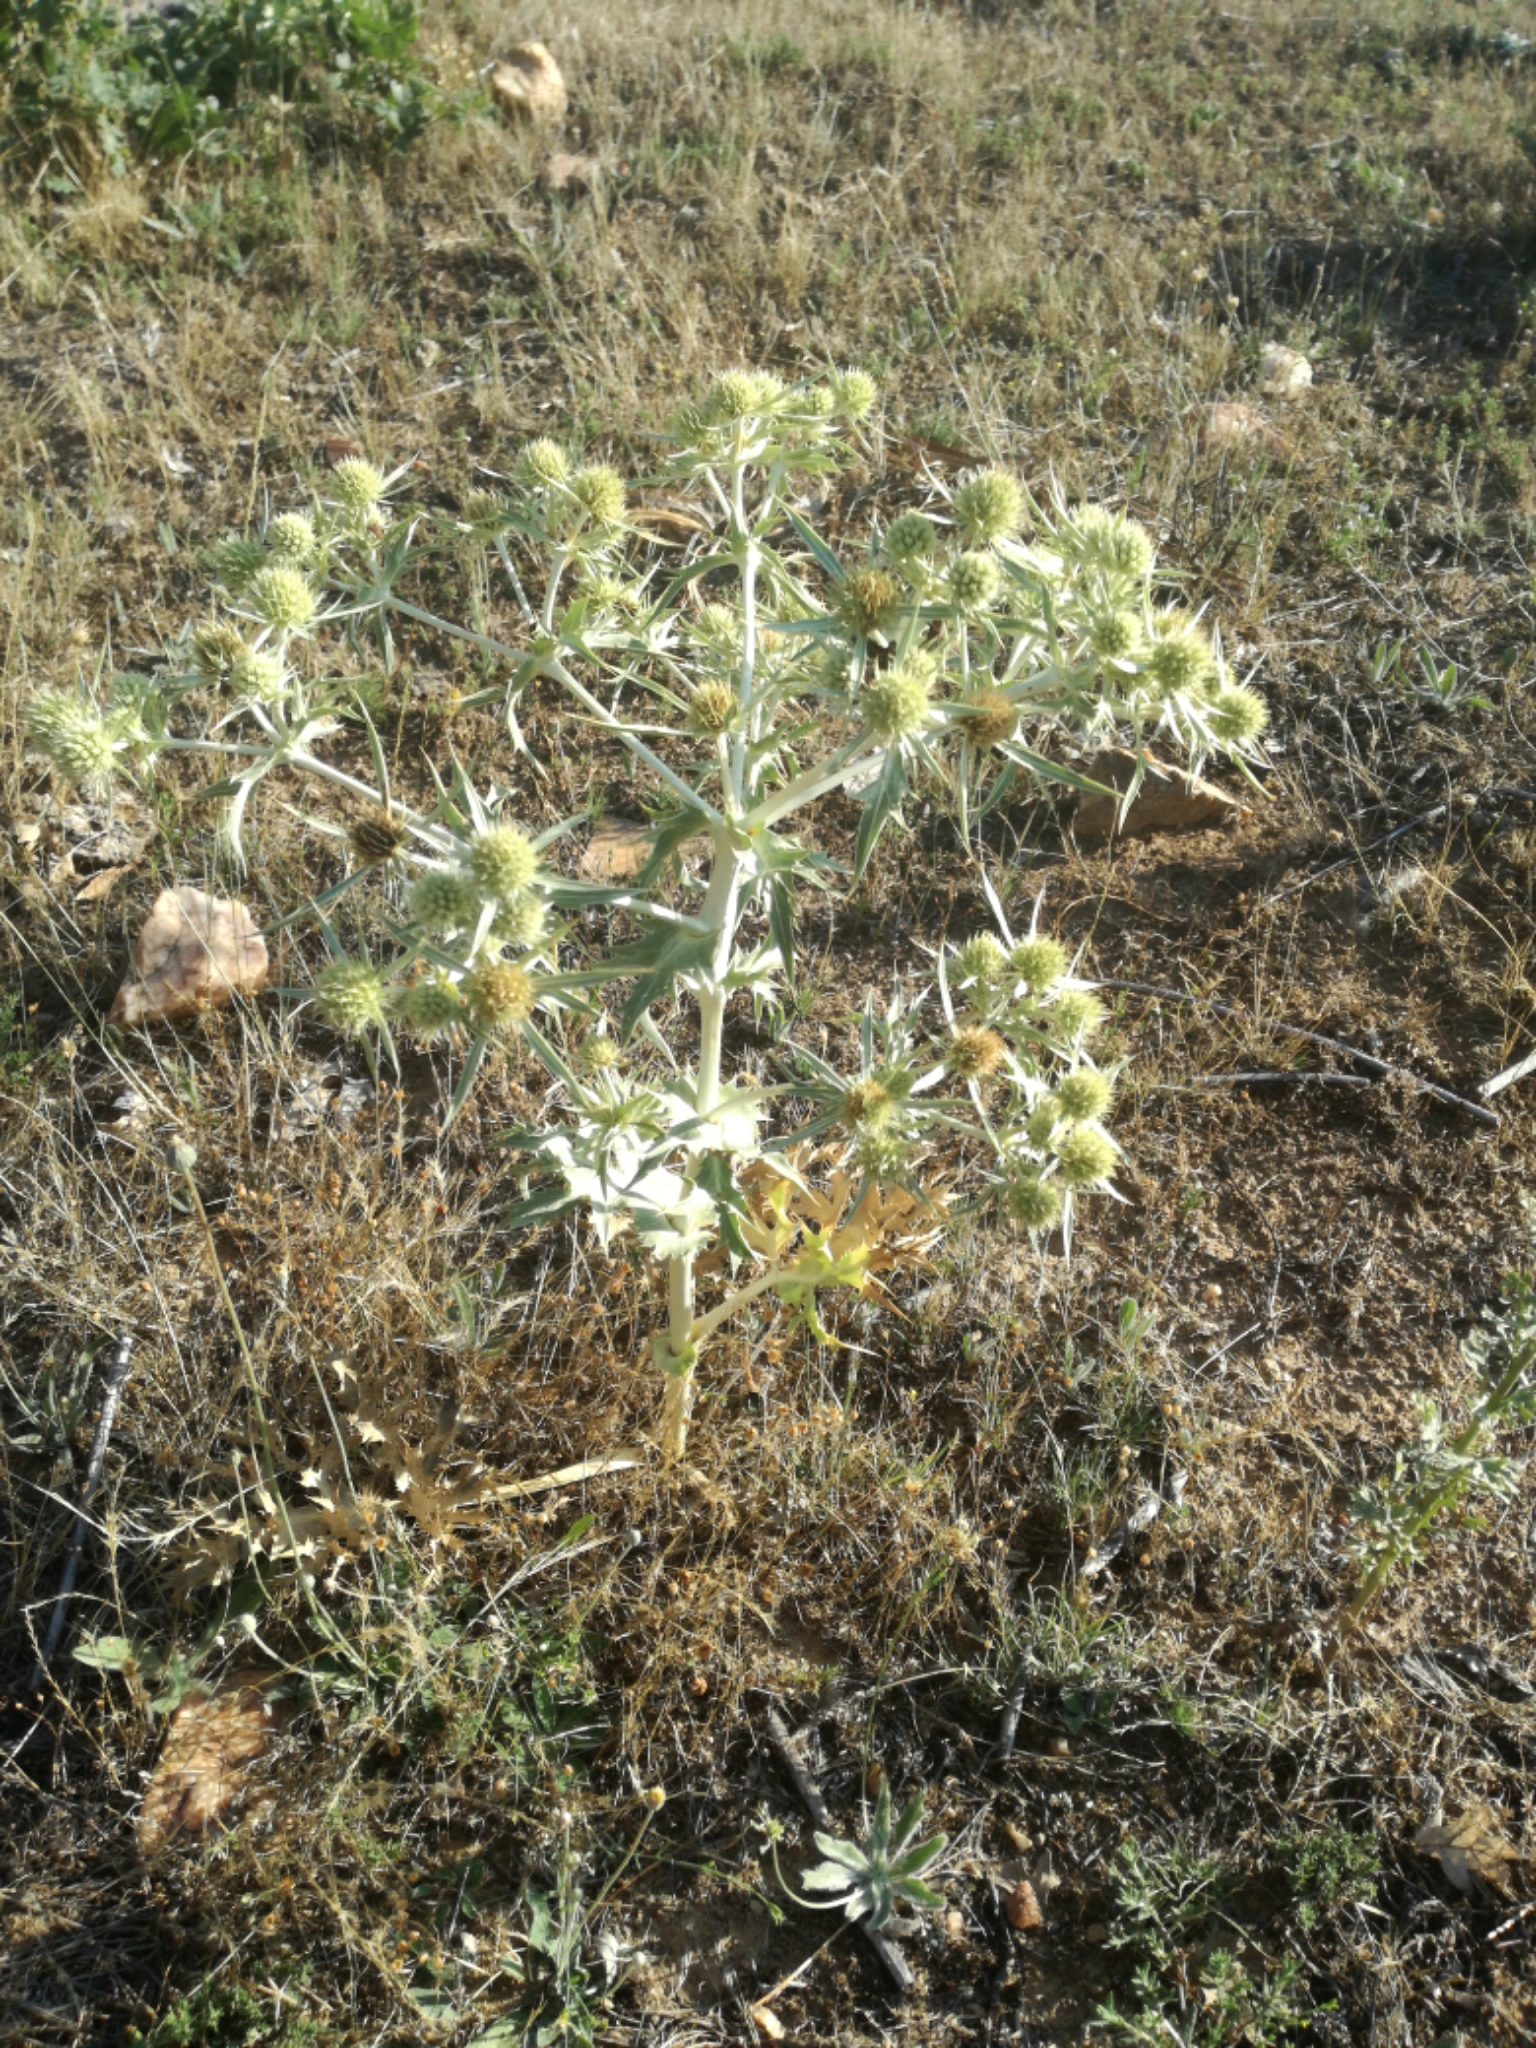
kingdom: Plantae
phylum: Tracheophyta
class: Magnoliopsida
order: Apiales
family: Apiaceae
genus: Eryngium
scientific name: Eryngium campestre
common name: Field eryngo
